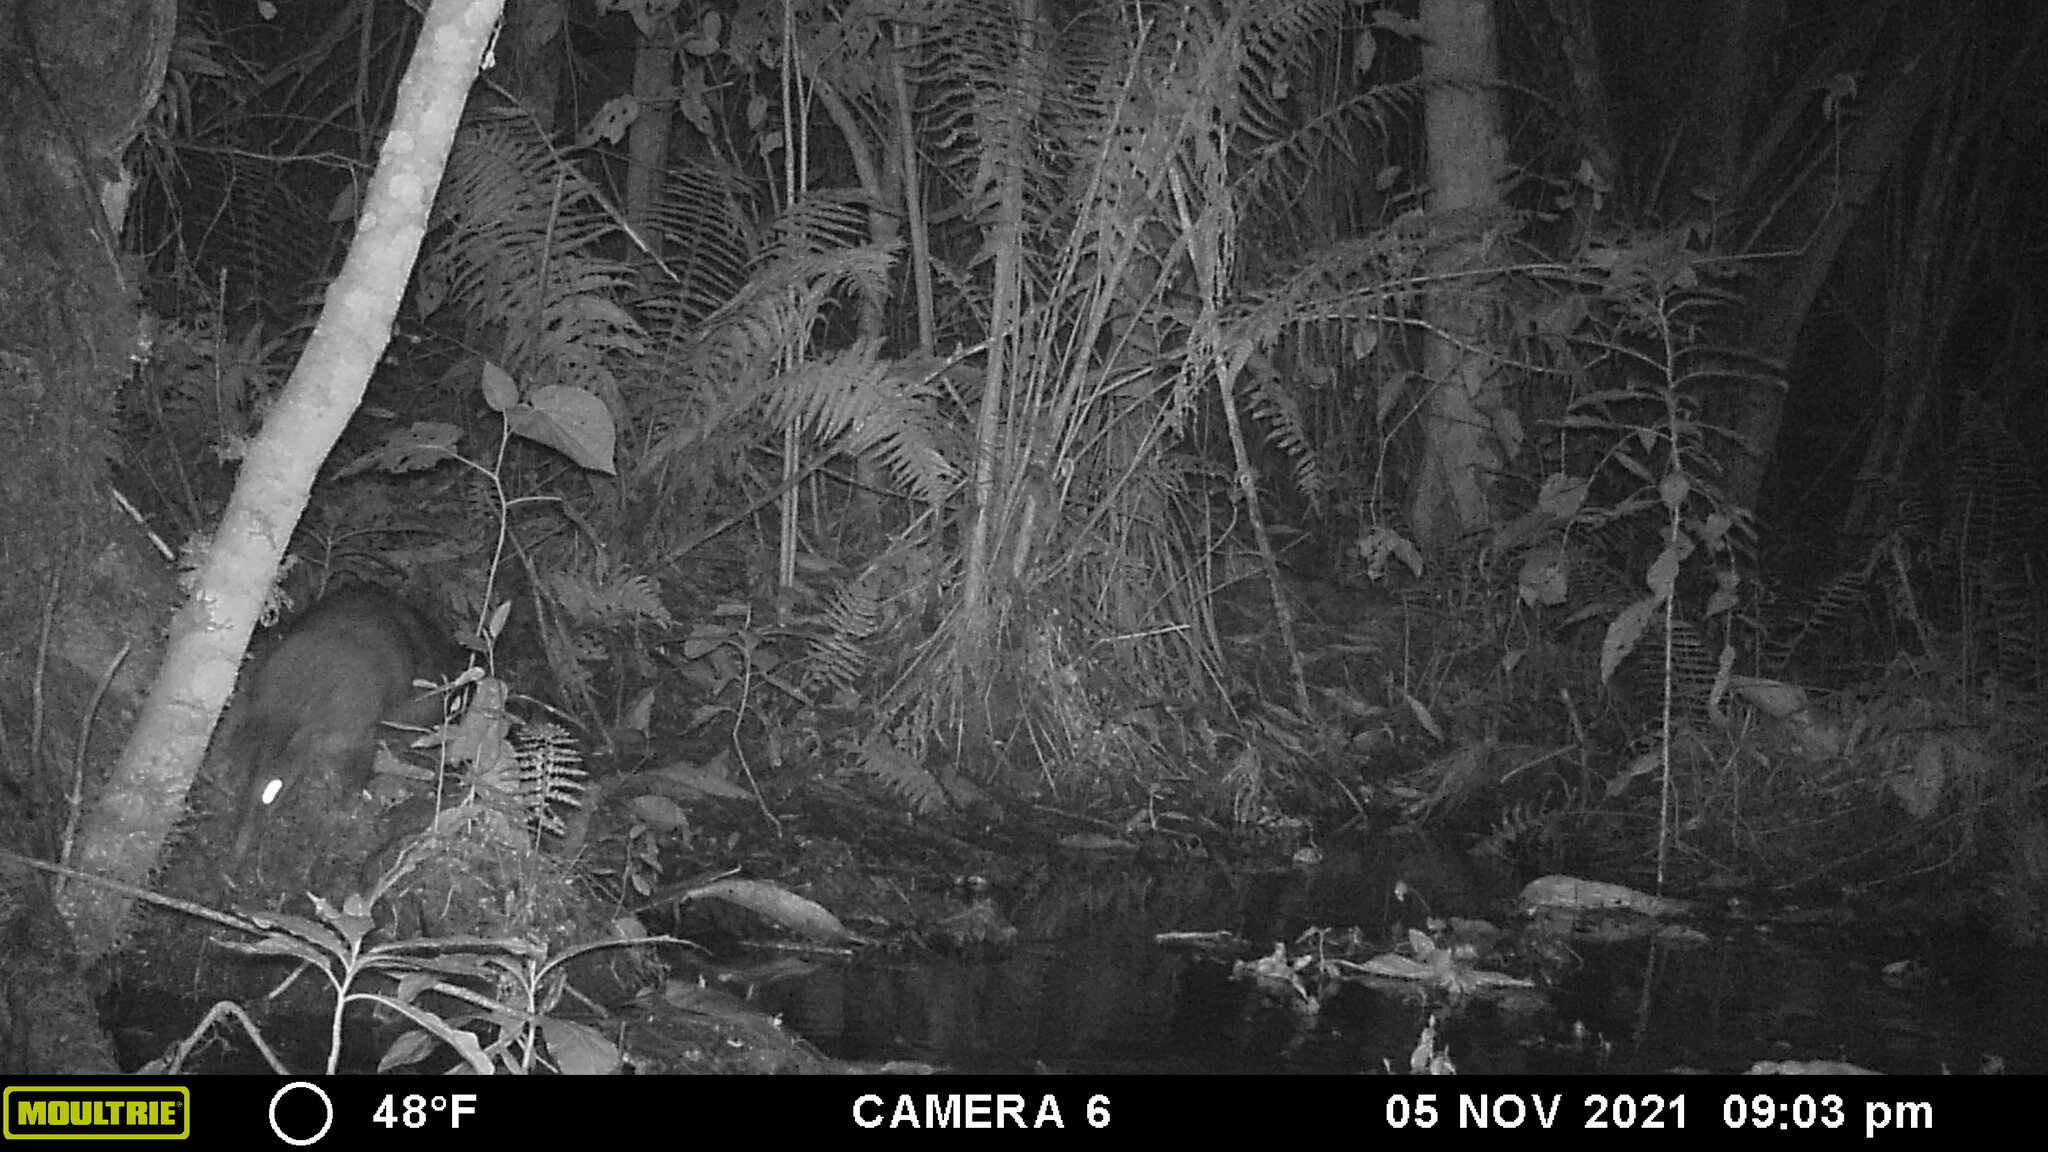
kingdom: Animalia
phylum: Chordata
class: Mammalia
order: Carnivora
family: Procyonidae
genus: Nasua
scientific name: Nasua olivacea
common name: Mountain coati
